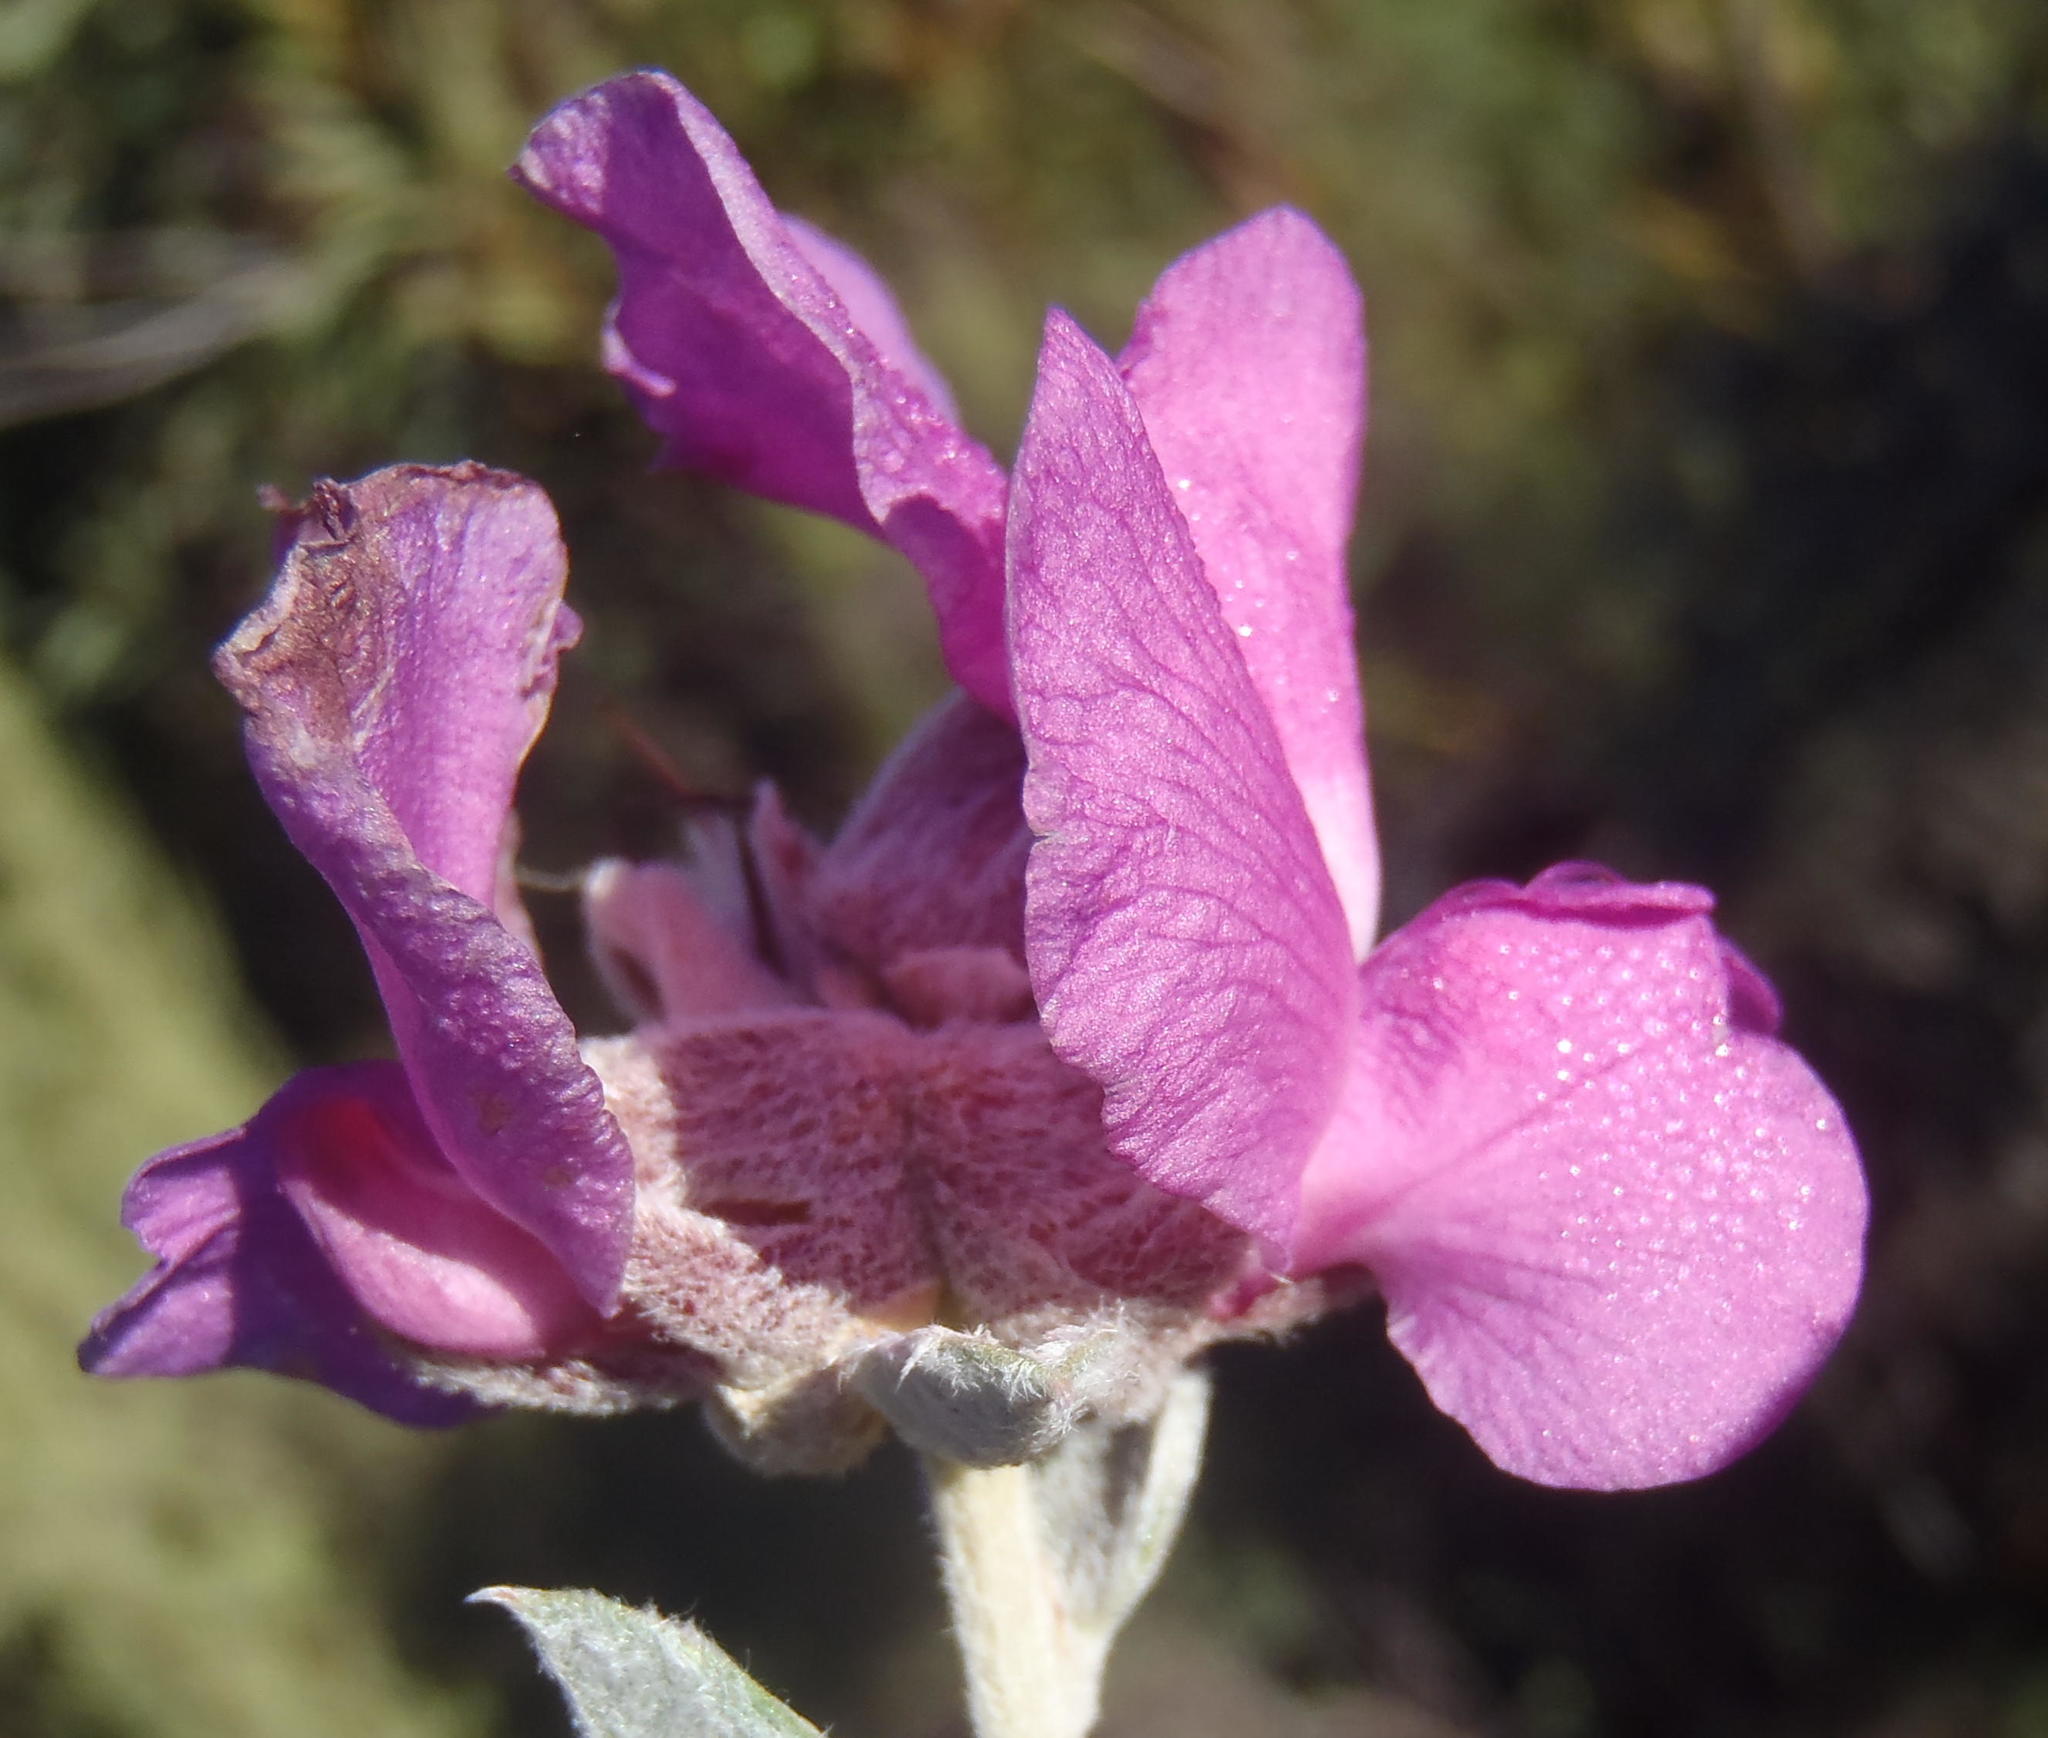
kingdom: Plantae
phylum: Tracheophyta
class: Magnoliopsida
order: Fabales
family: Fabaceae
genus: Podalyria
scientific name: Podalyria burchellii
